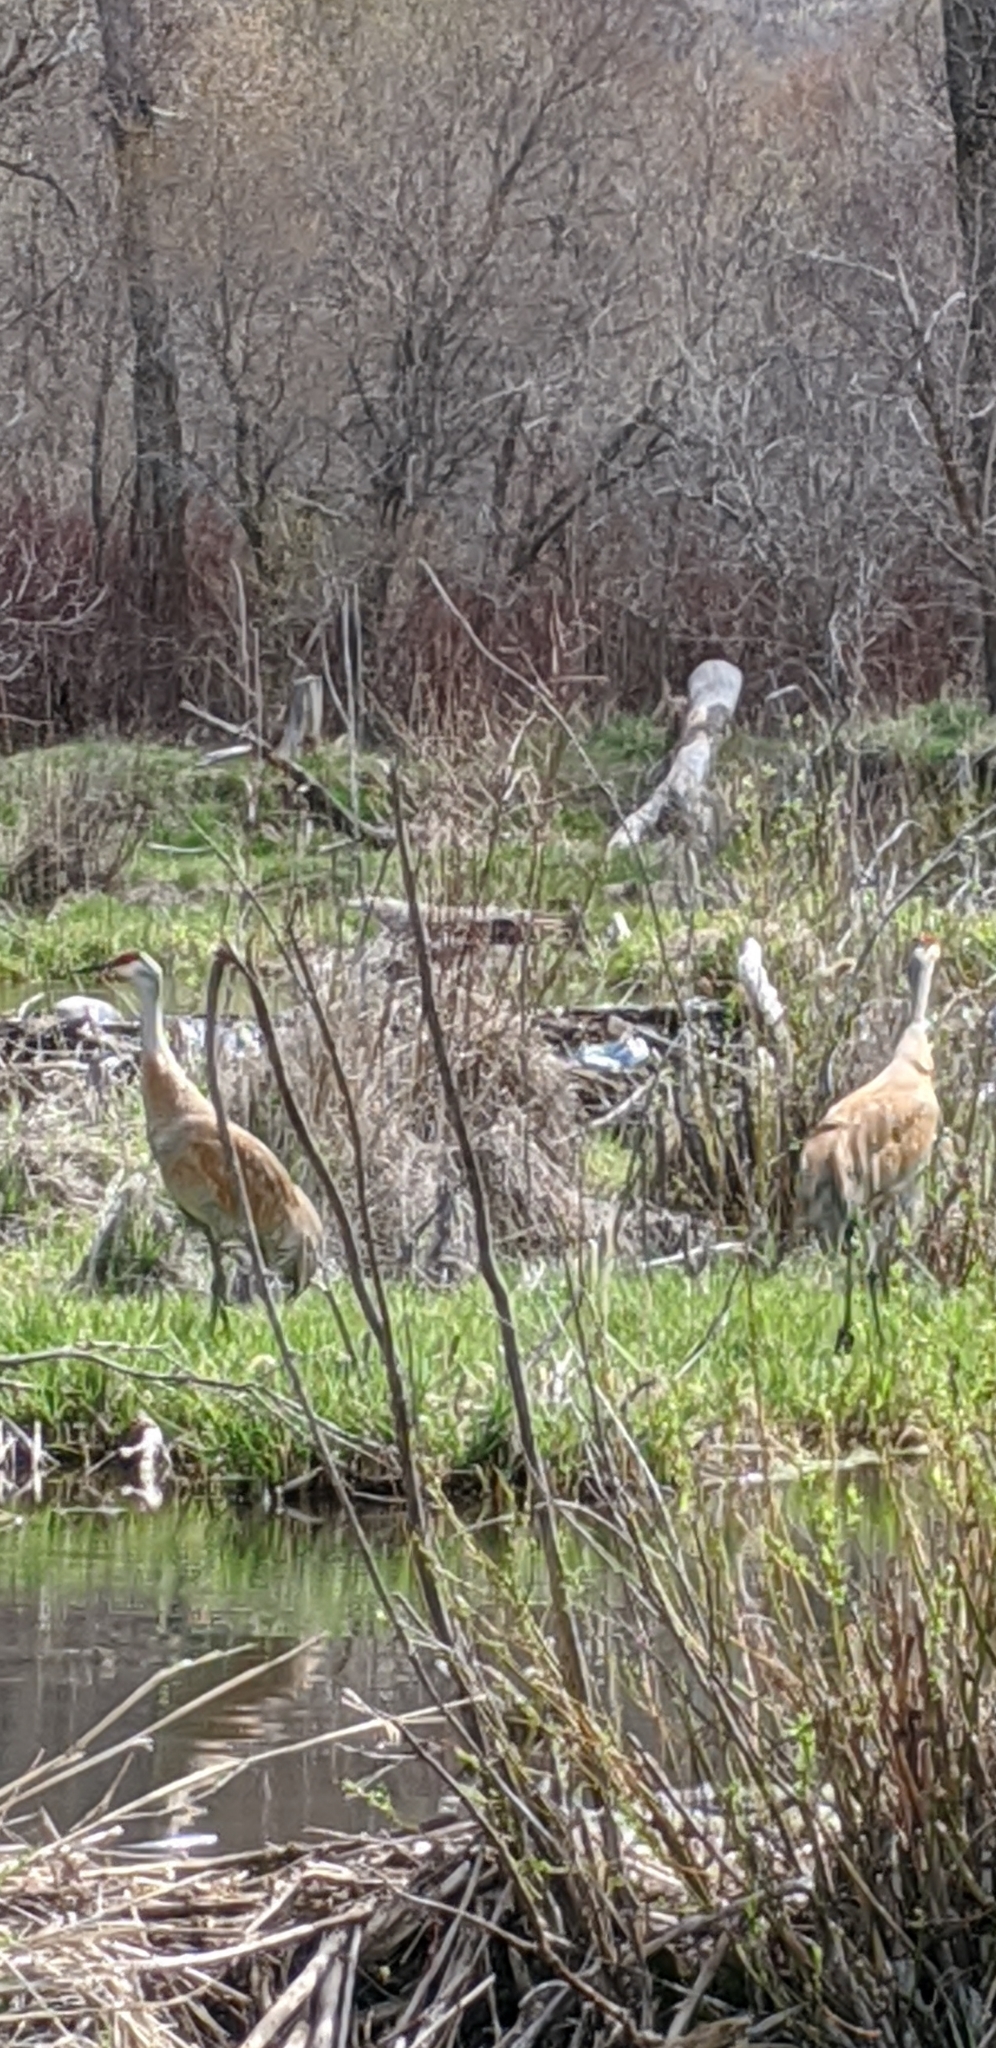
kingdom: Animalia
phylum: Chordata
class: Aves
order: Gruiformes
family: Gruidae
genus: Grus
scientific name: Grus canadensis
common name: Sandhill crane
